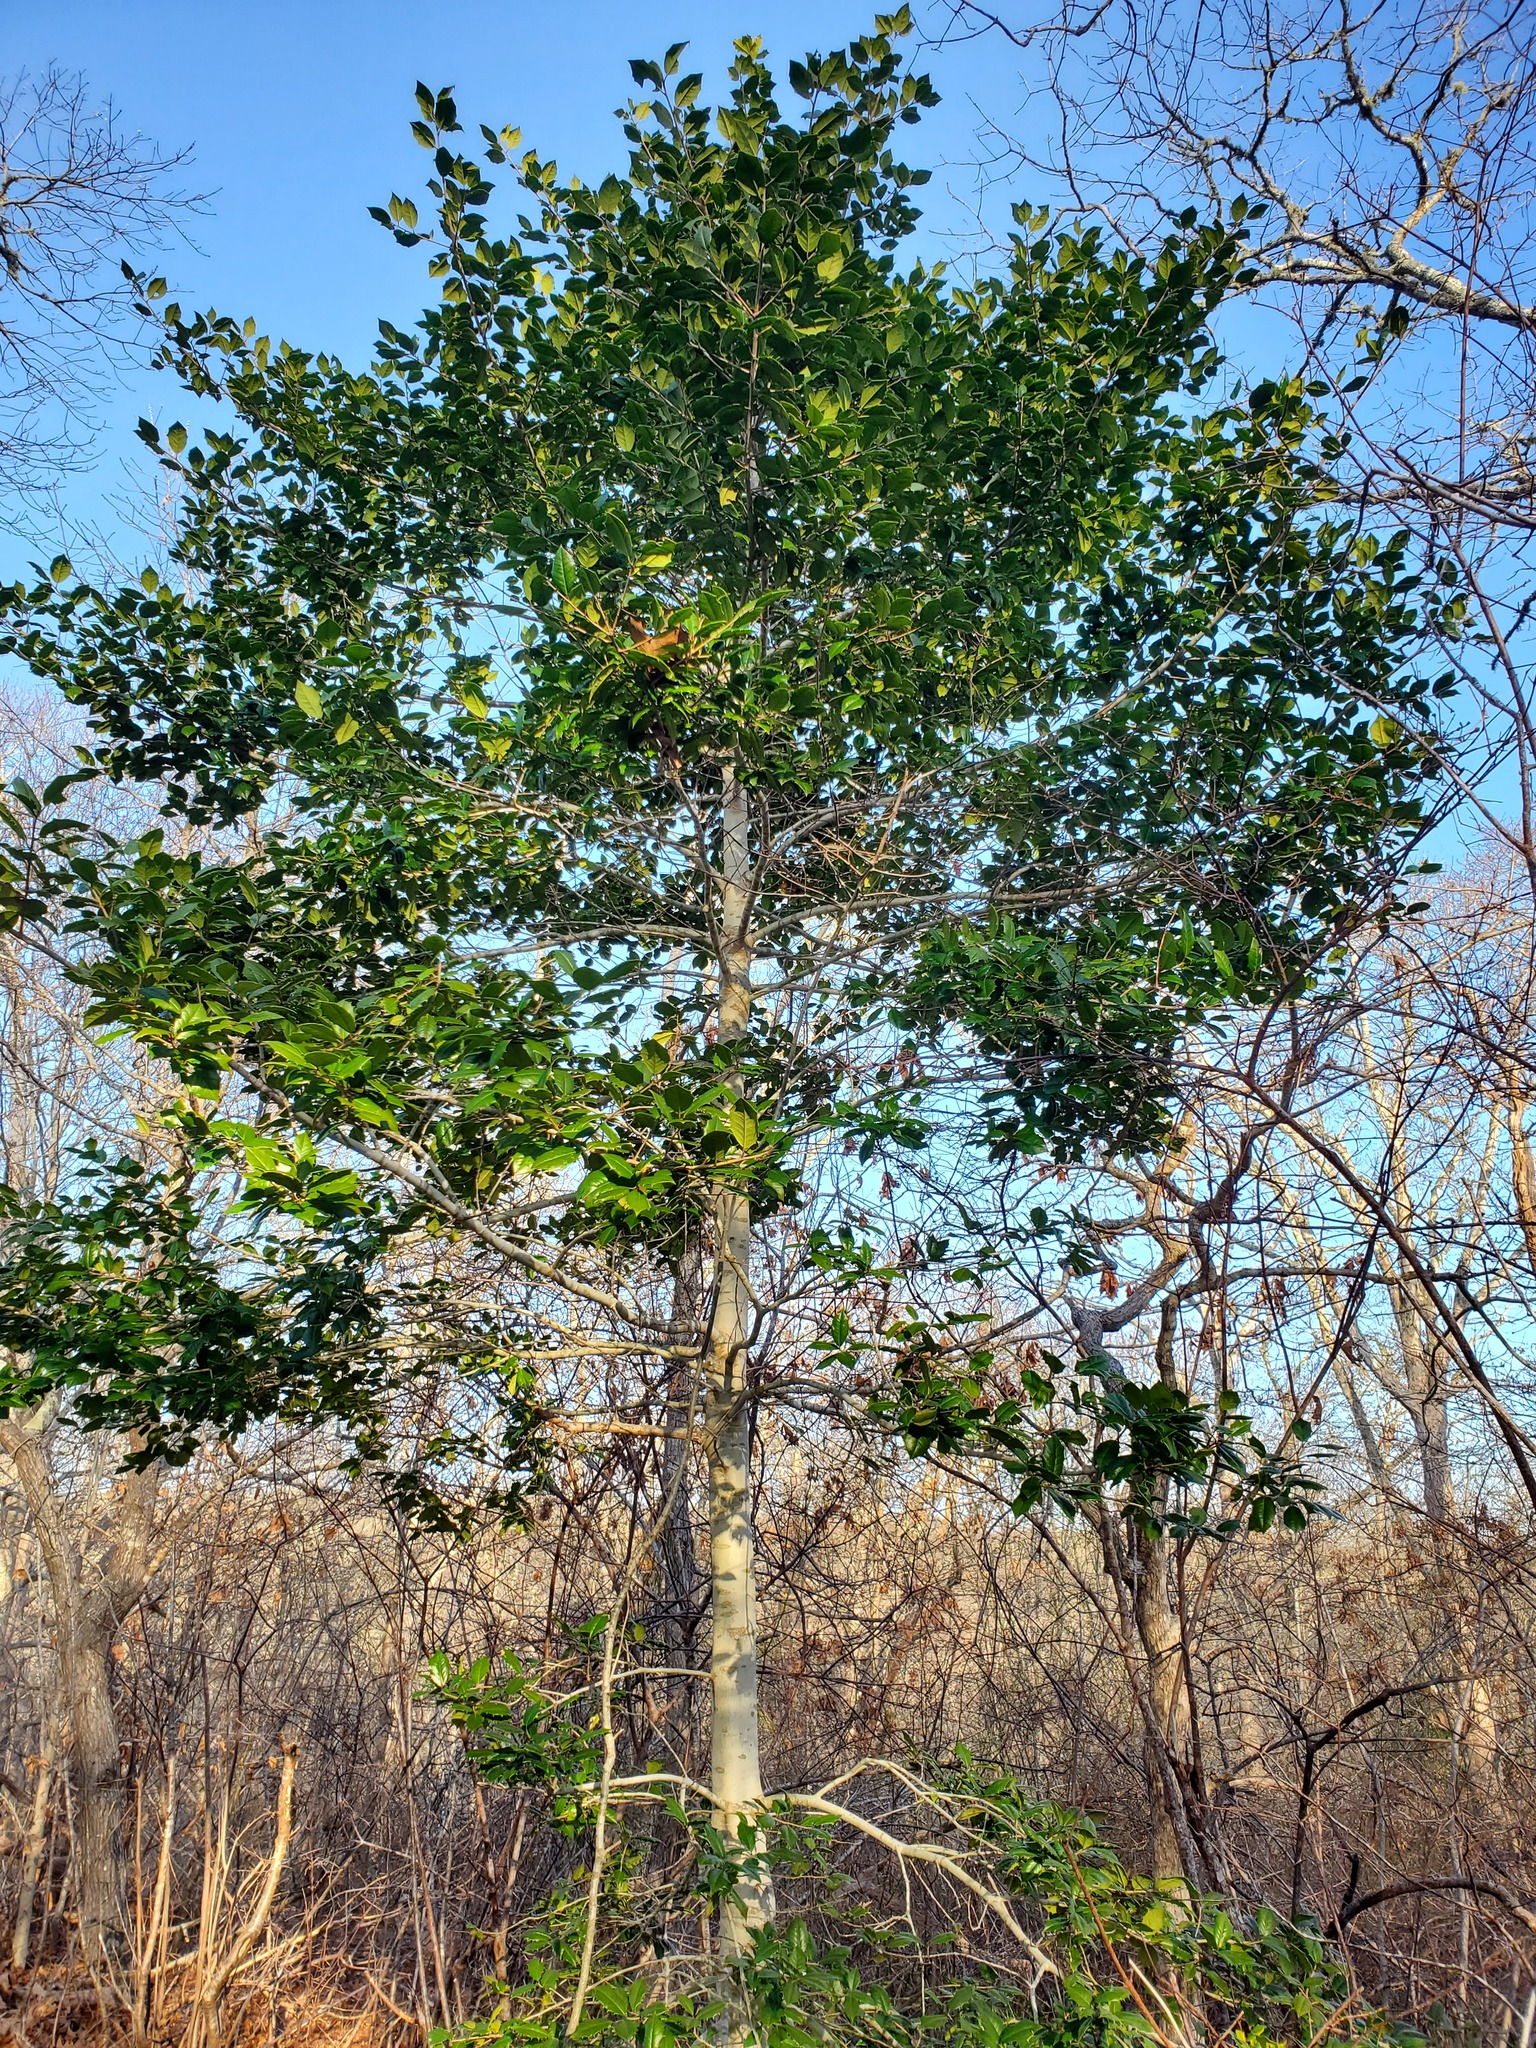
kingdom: Plantae
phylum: Tracheophyta
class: Magnoliopsida
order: Aquifoliales
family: Aquifoliaceae
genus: Ilex
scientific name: Ilex opaca
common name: American holly
